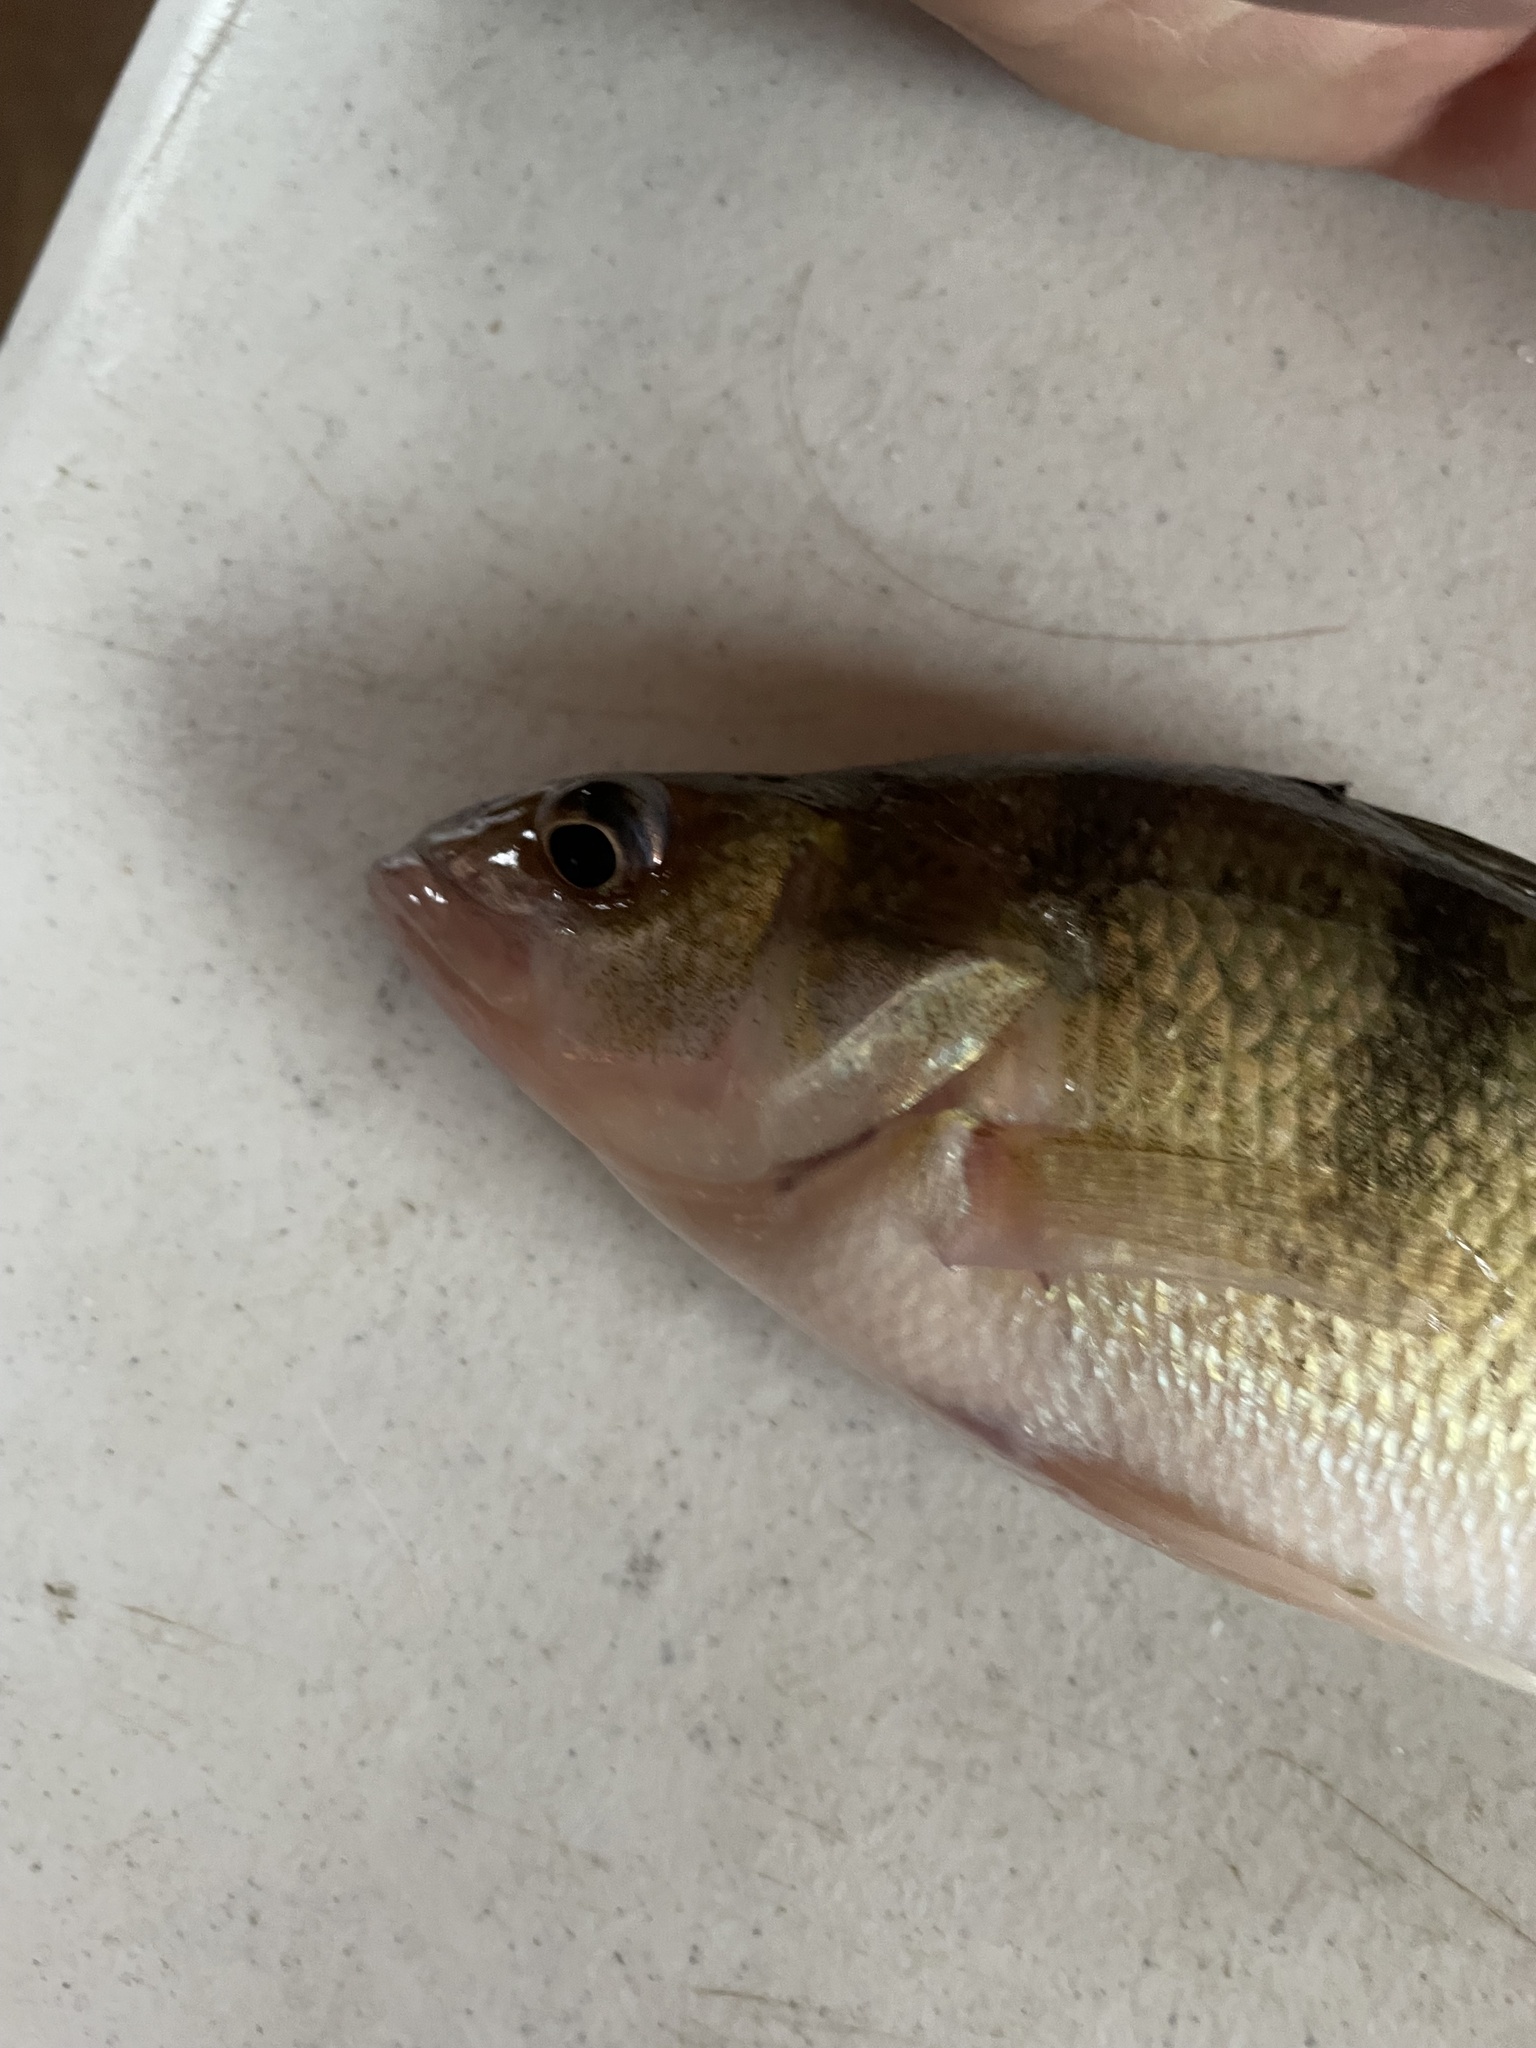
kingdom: Animalia
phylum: Chordata
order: Perciformes
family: Percidae
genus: Perca
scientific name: Perca flavescens
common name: Yellow perch
